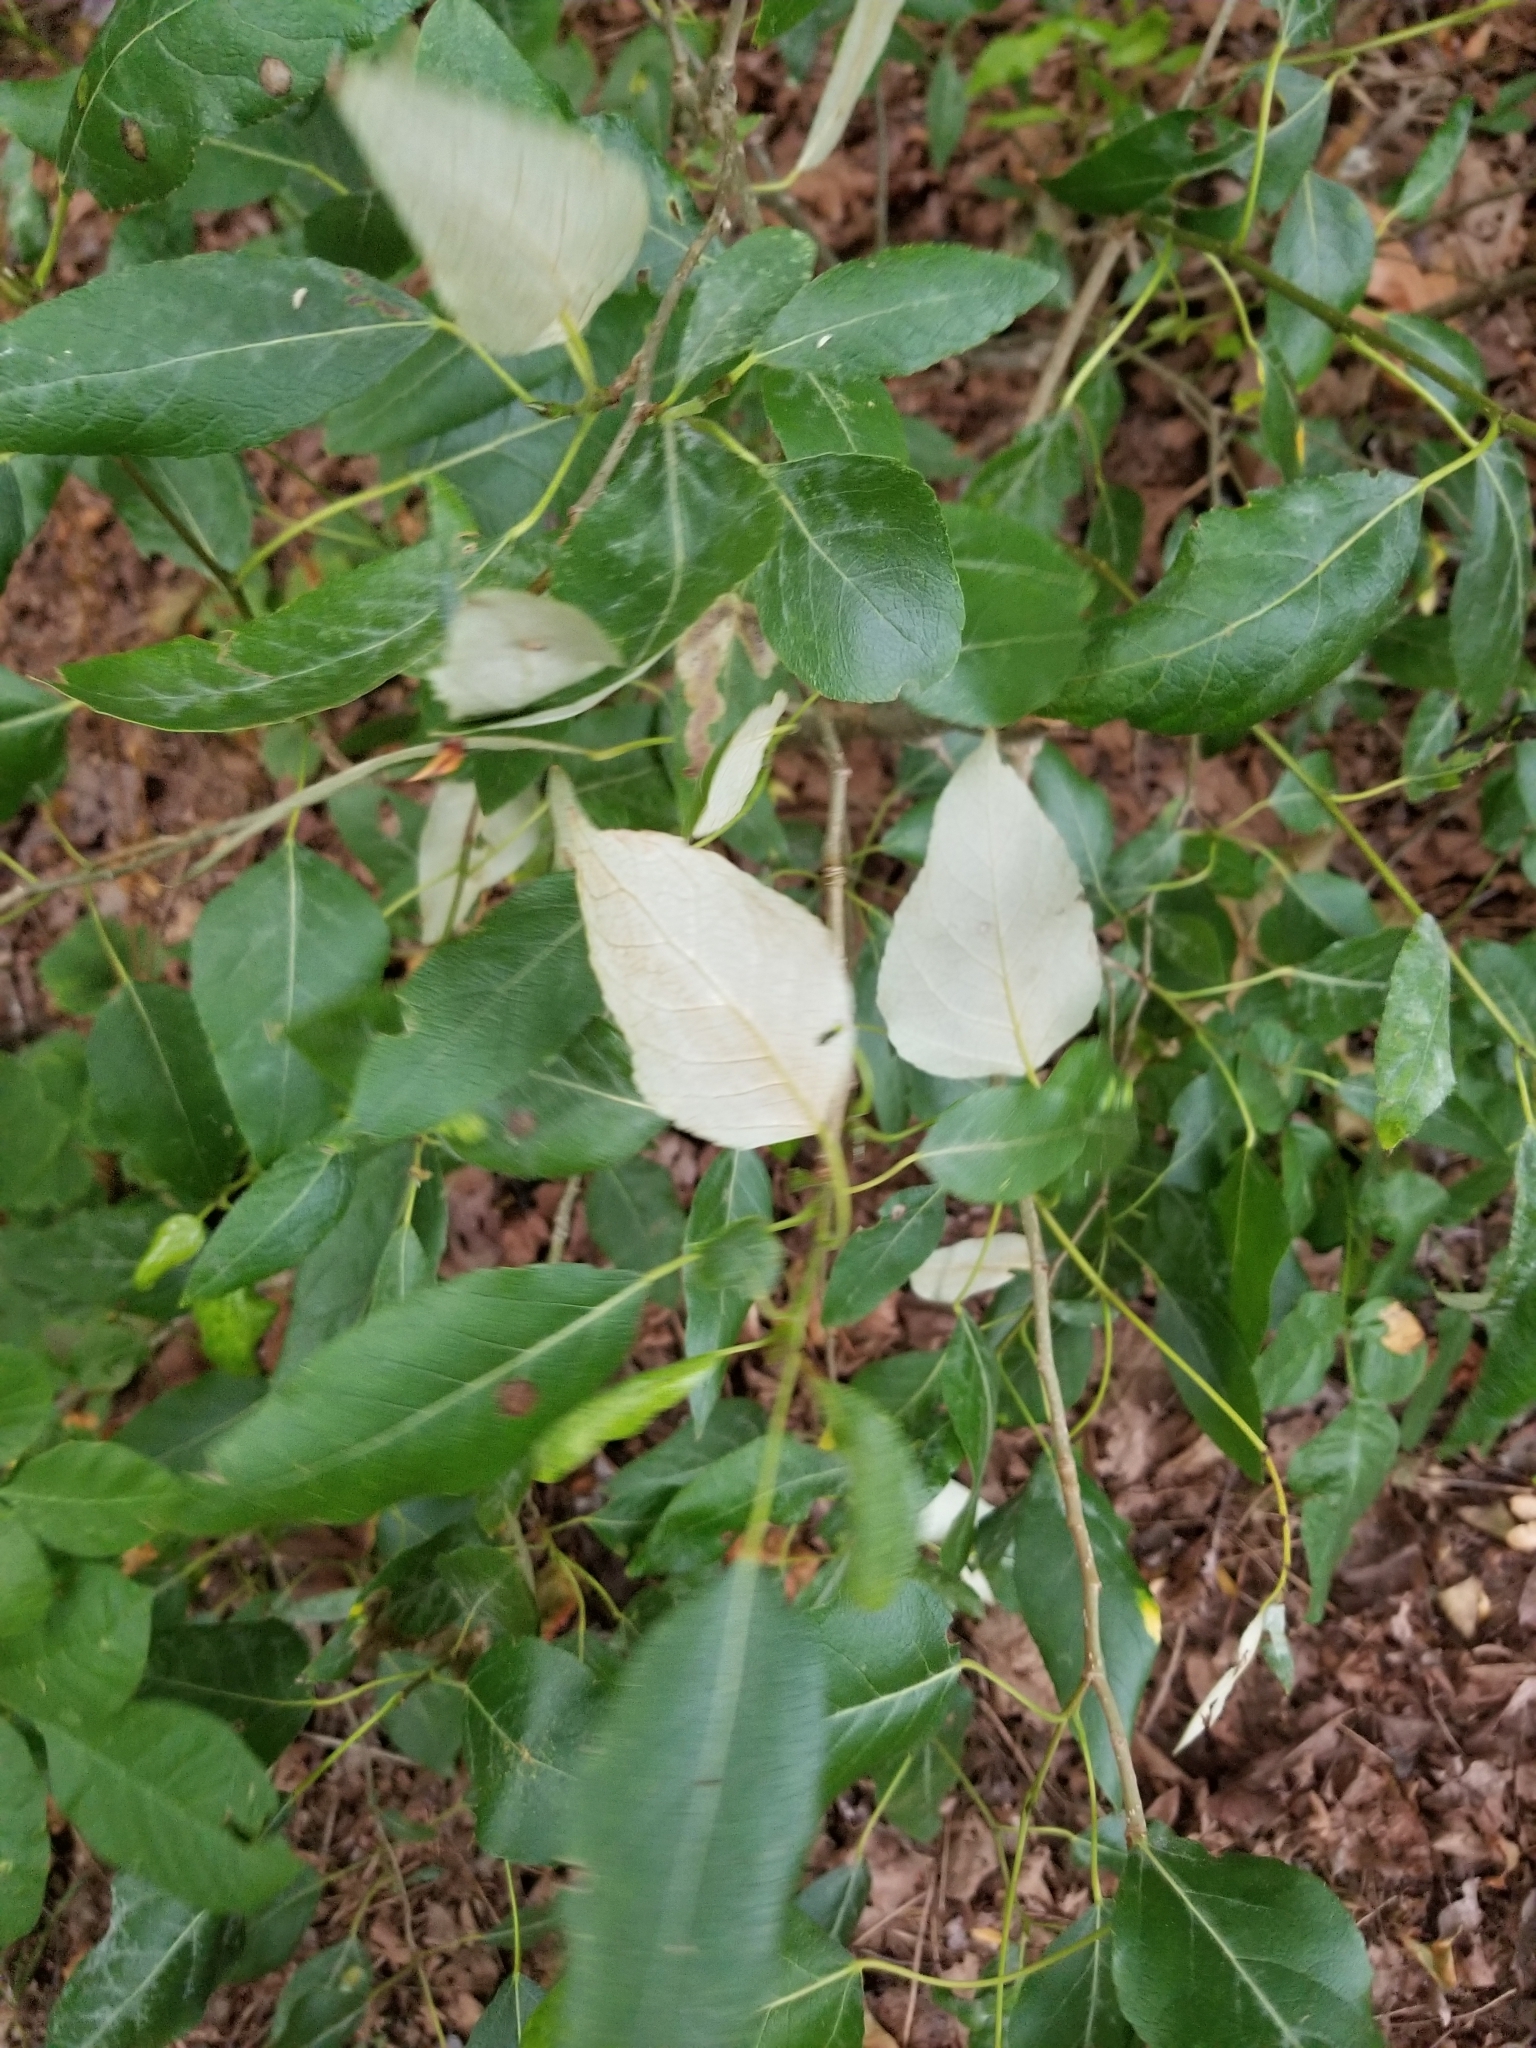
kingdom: Plantae
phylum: Tracheophyta
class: Magnoliopsida
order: Malpighiales
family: Salicaceae
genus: Populus
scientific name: Populus trichocarpa
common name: Black cottonwood
